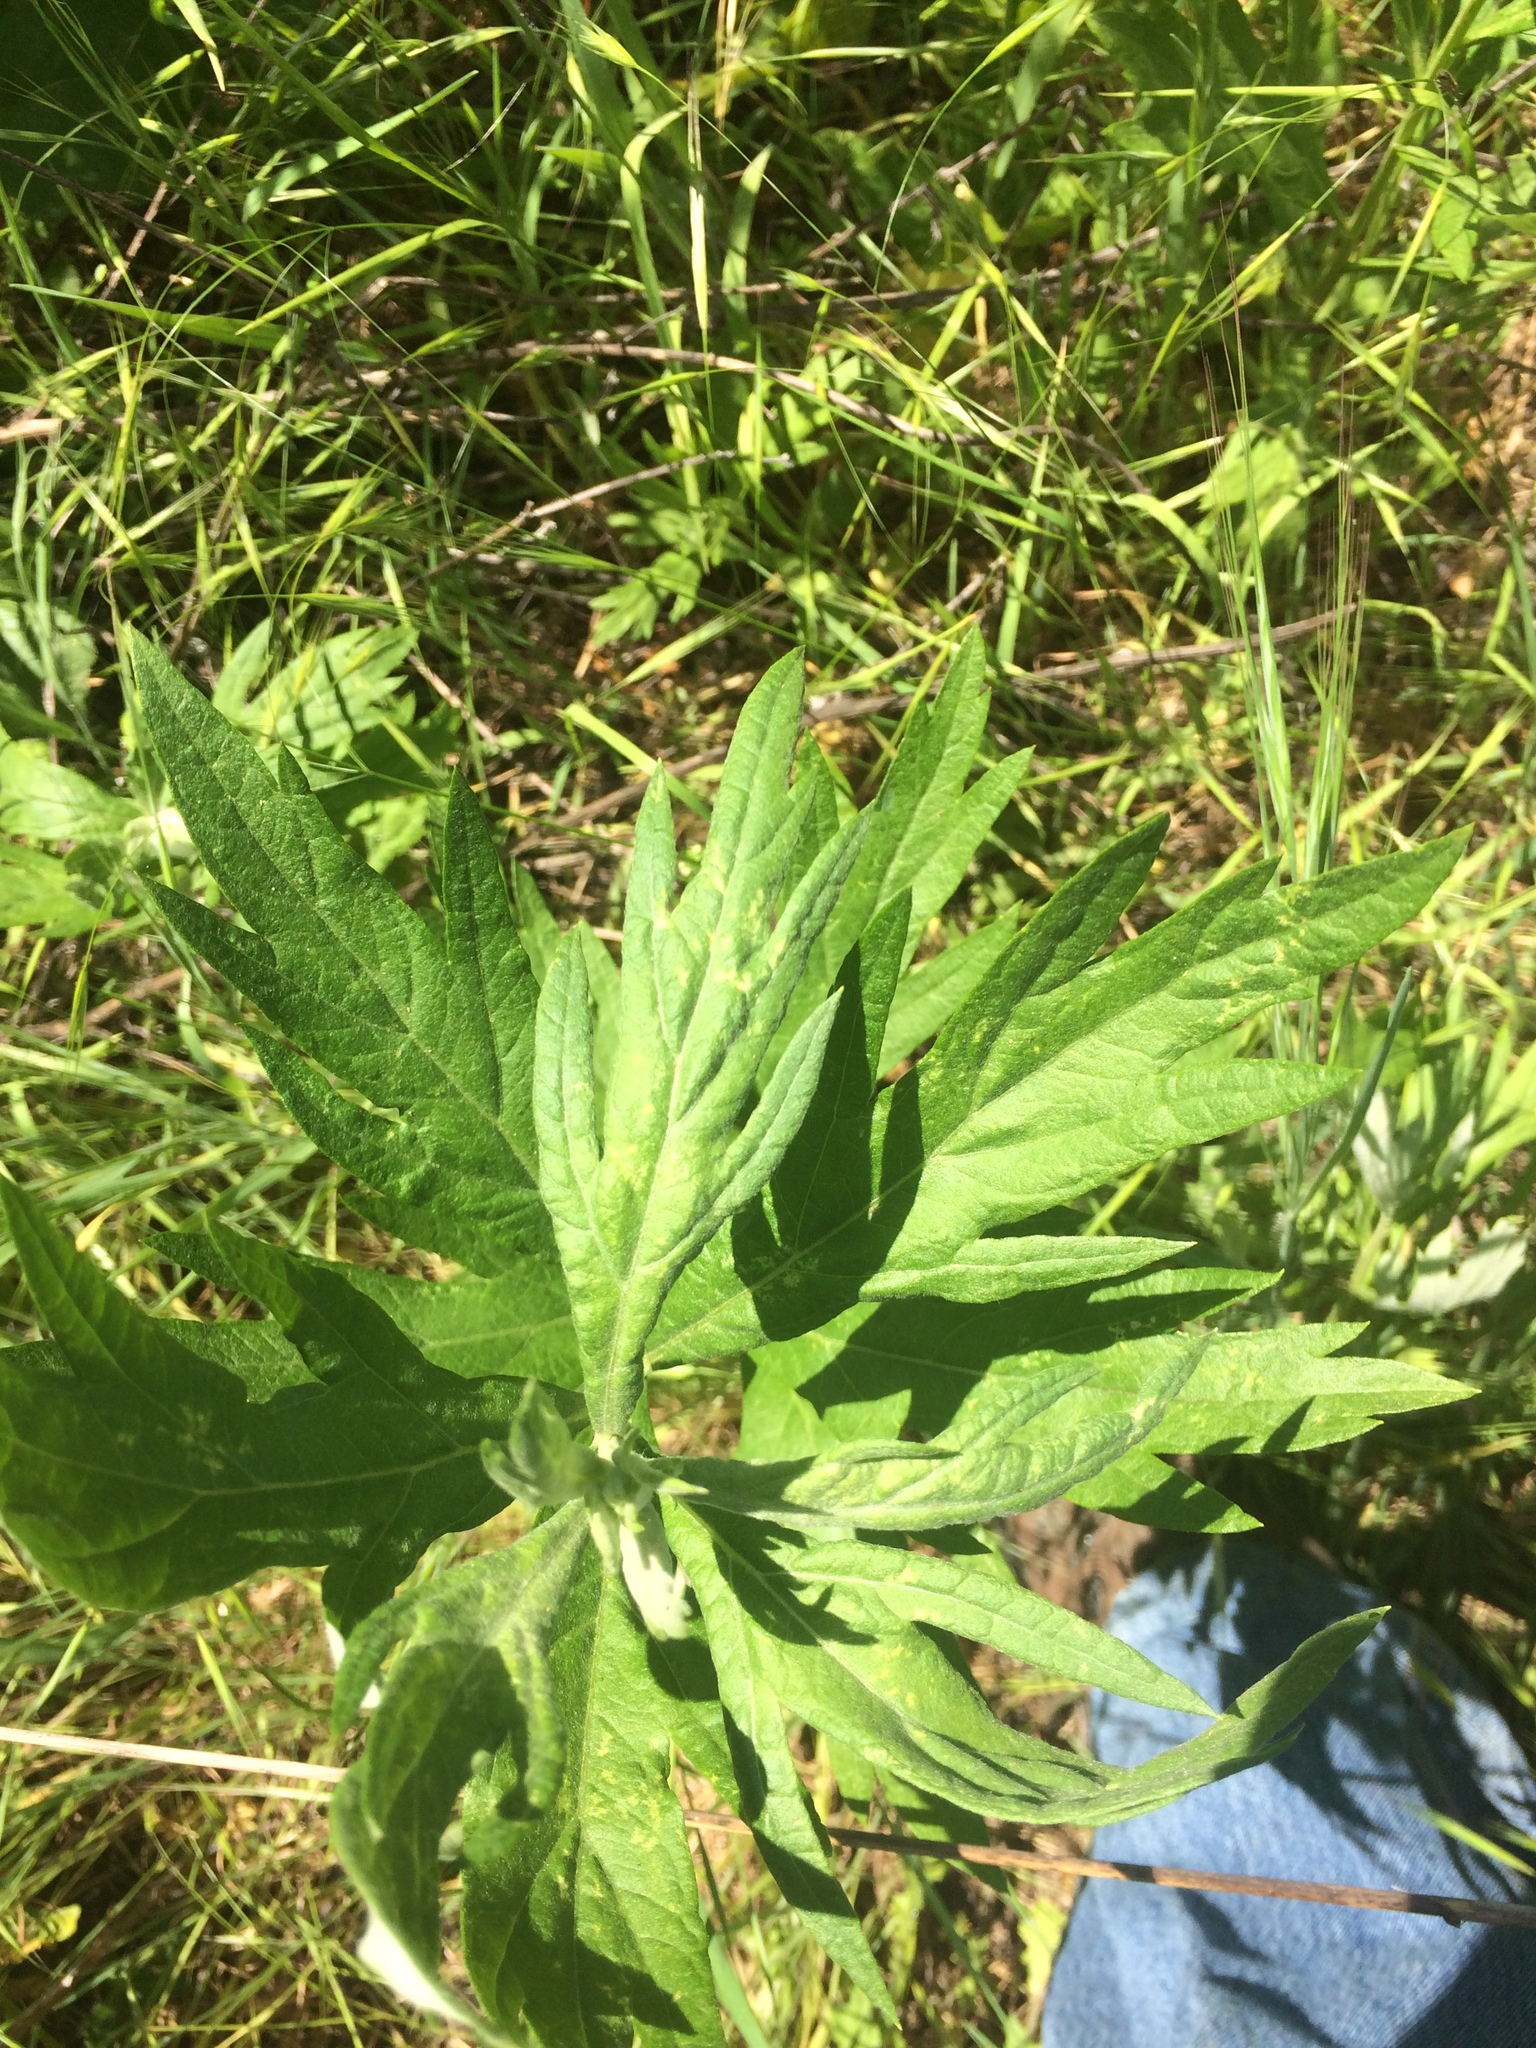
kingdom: Plantae
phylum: Tracheophyta
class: Magnoliopsida
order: Asterales
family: Asteraceae
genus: Artemisia
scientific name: Artemisia douglasiana
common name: Northwest mugwort
